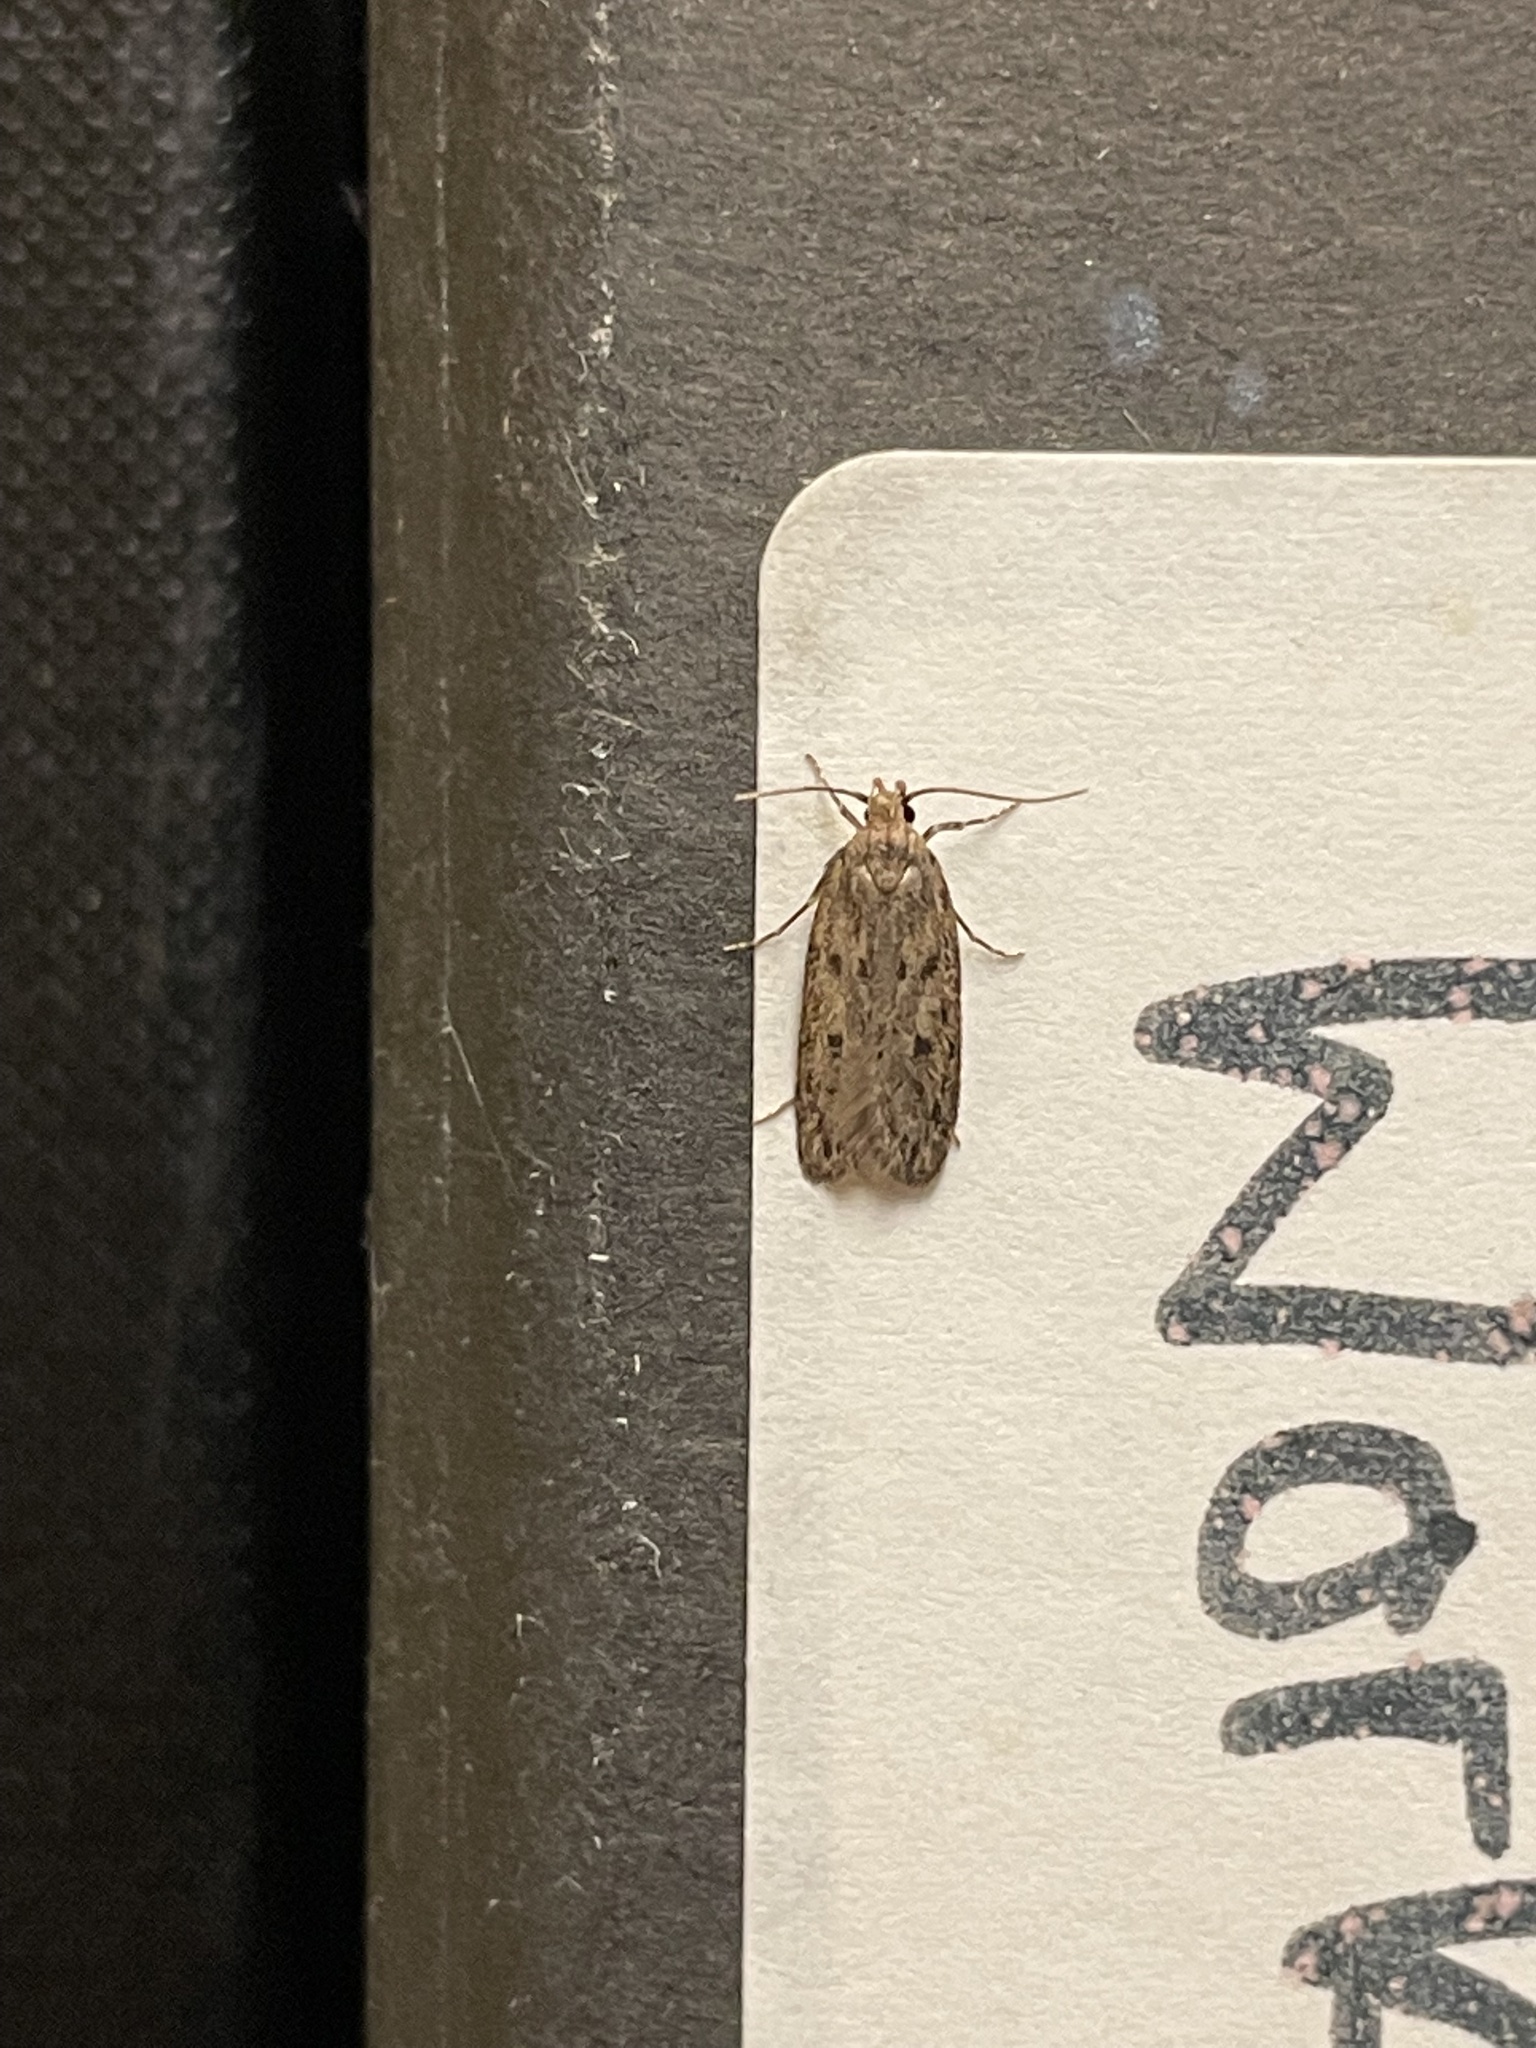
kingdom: Animalia
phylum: Arthropoda
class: Insecta
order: Lepidoptera
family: Oecophoridae
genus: Hofmannophila
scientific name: Hofmannophila pseudospretella
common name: Brown house moth
